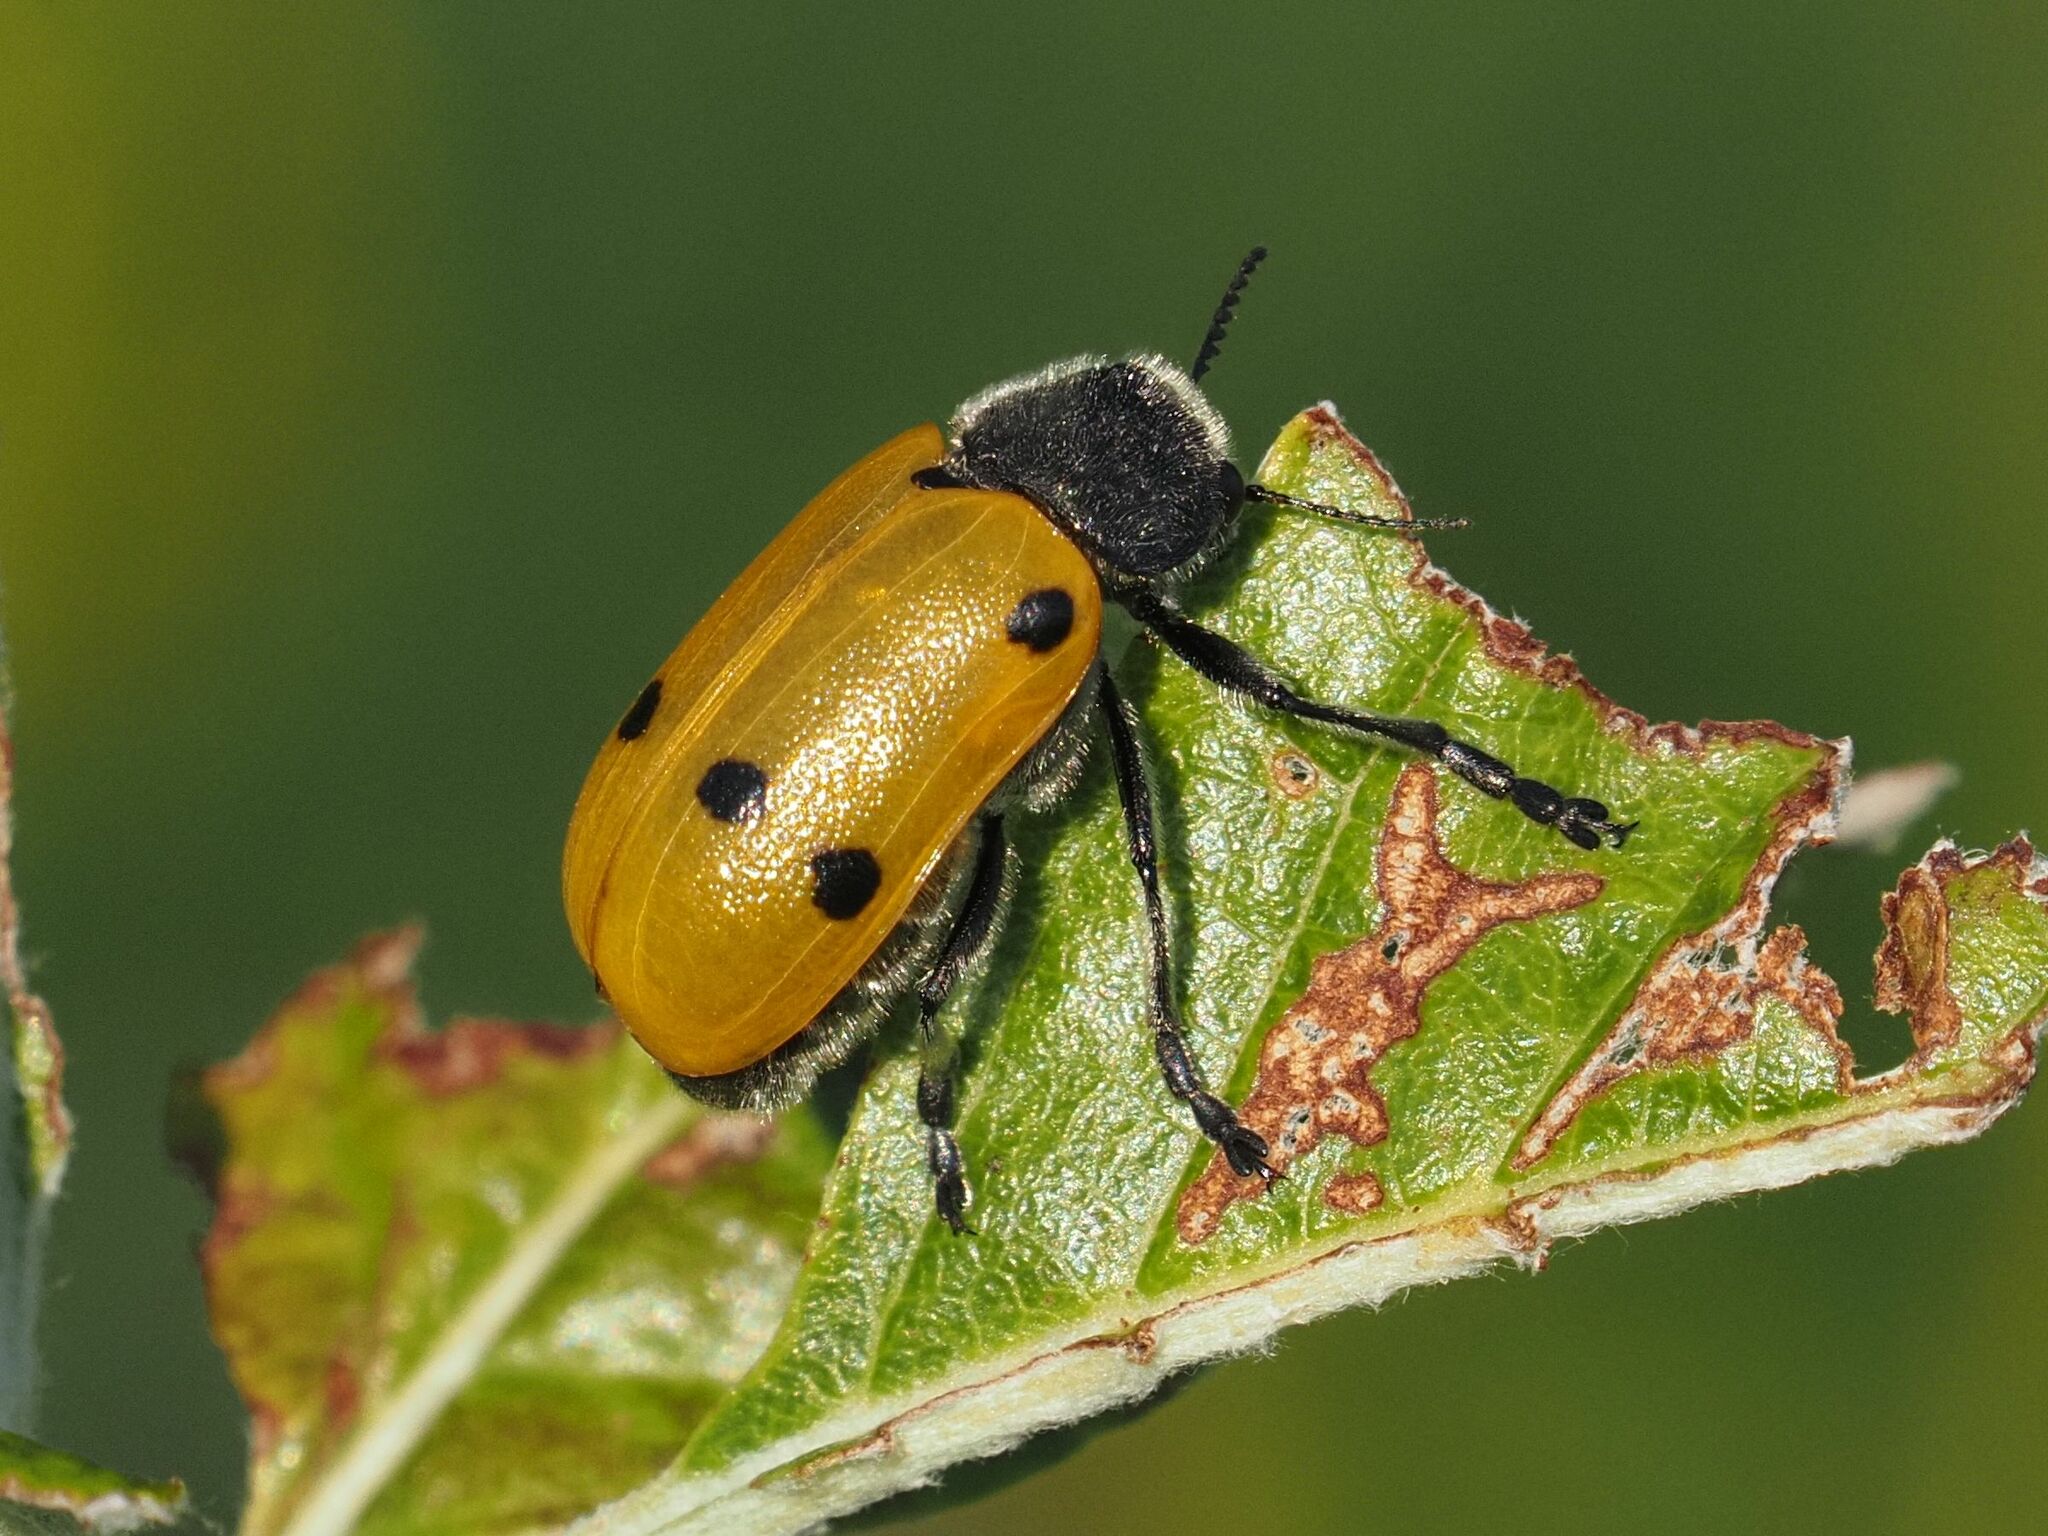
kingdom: Animalia
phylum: Arthropoda
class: Insecta
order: Coleoptera
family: Chrysomelidae
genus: Lachnaia
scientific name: Lachnaia sexpunctata
